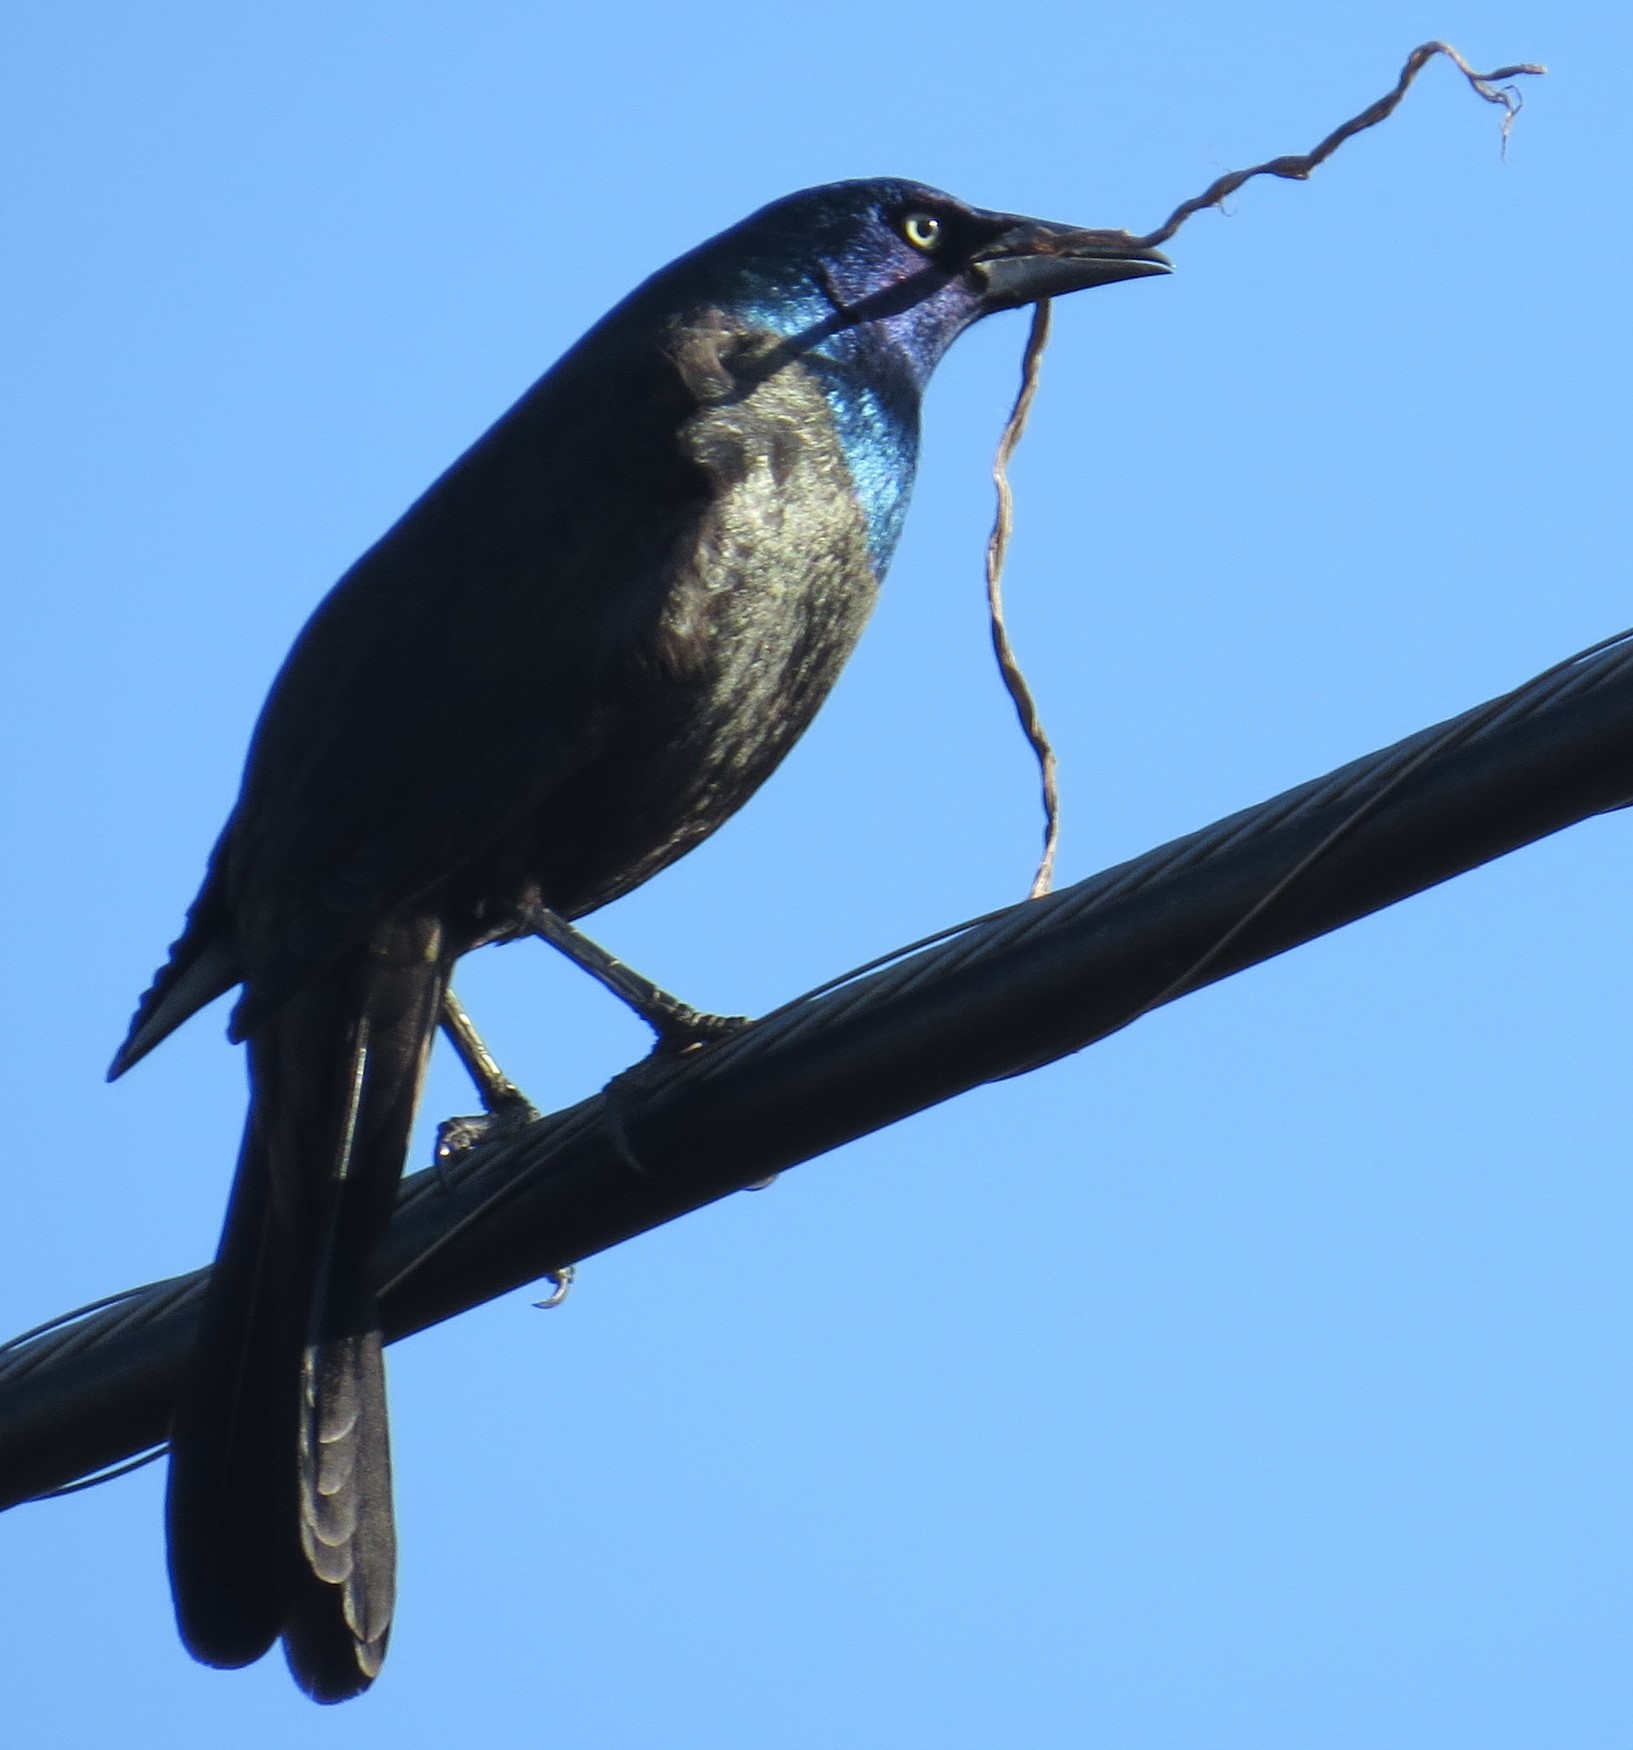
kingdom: Animalia
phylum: Chordata
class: Aves
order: Passeriformes
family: Icteridae
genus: Quiscalus
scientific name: Quiscalus quiscula
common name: Common grackle
